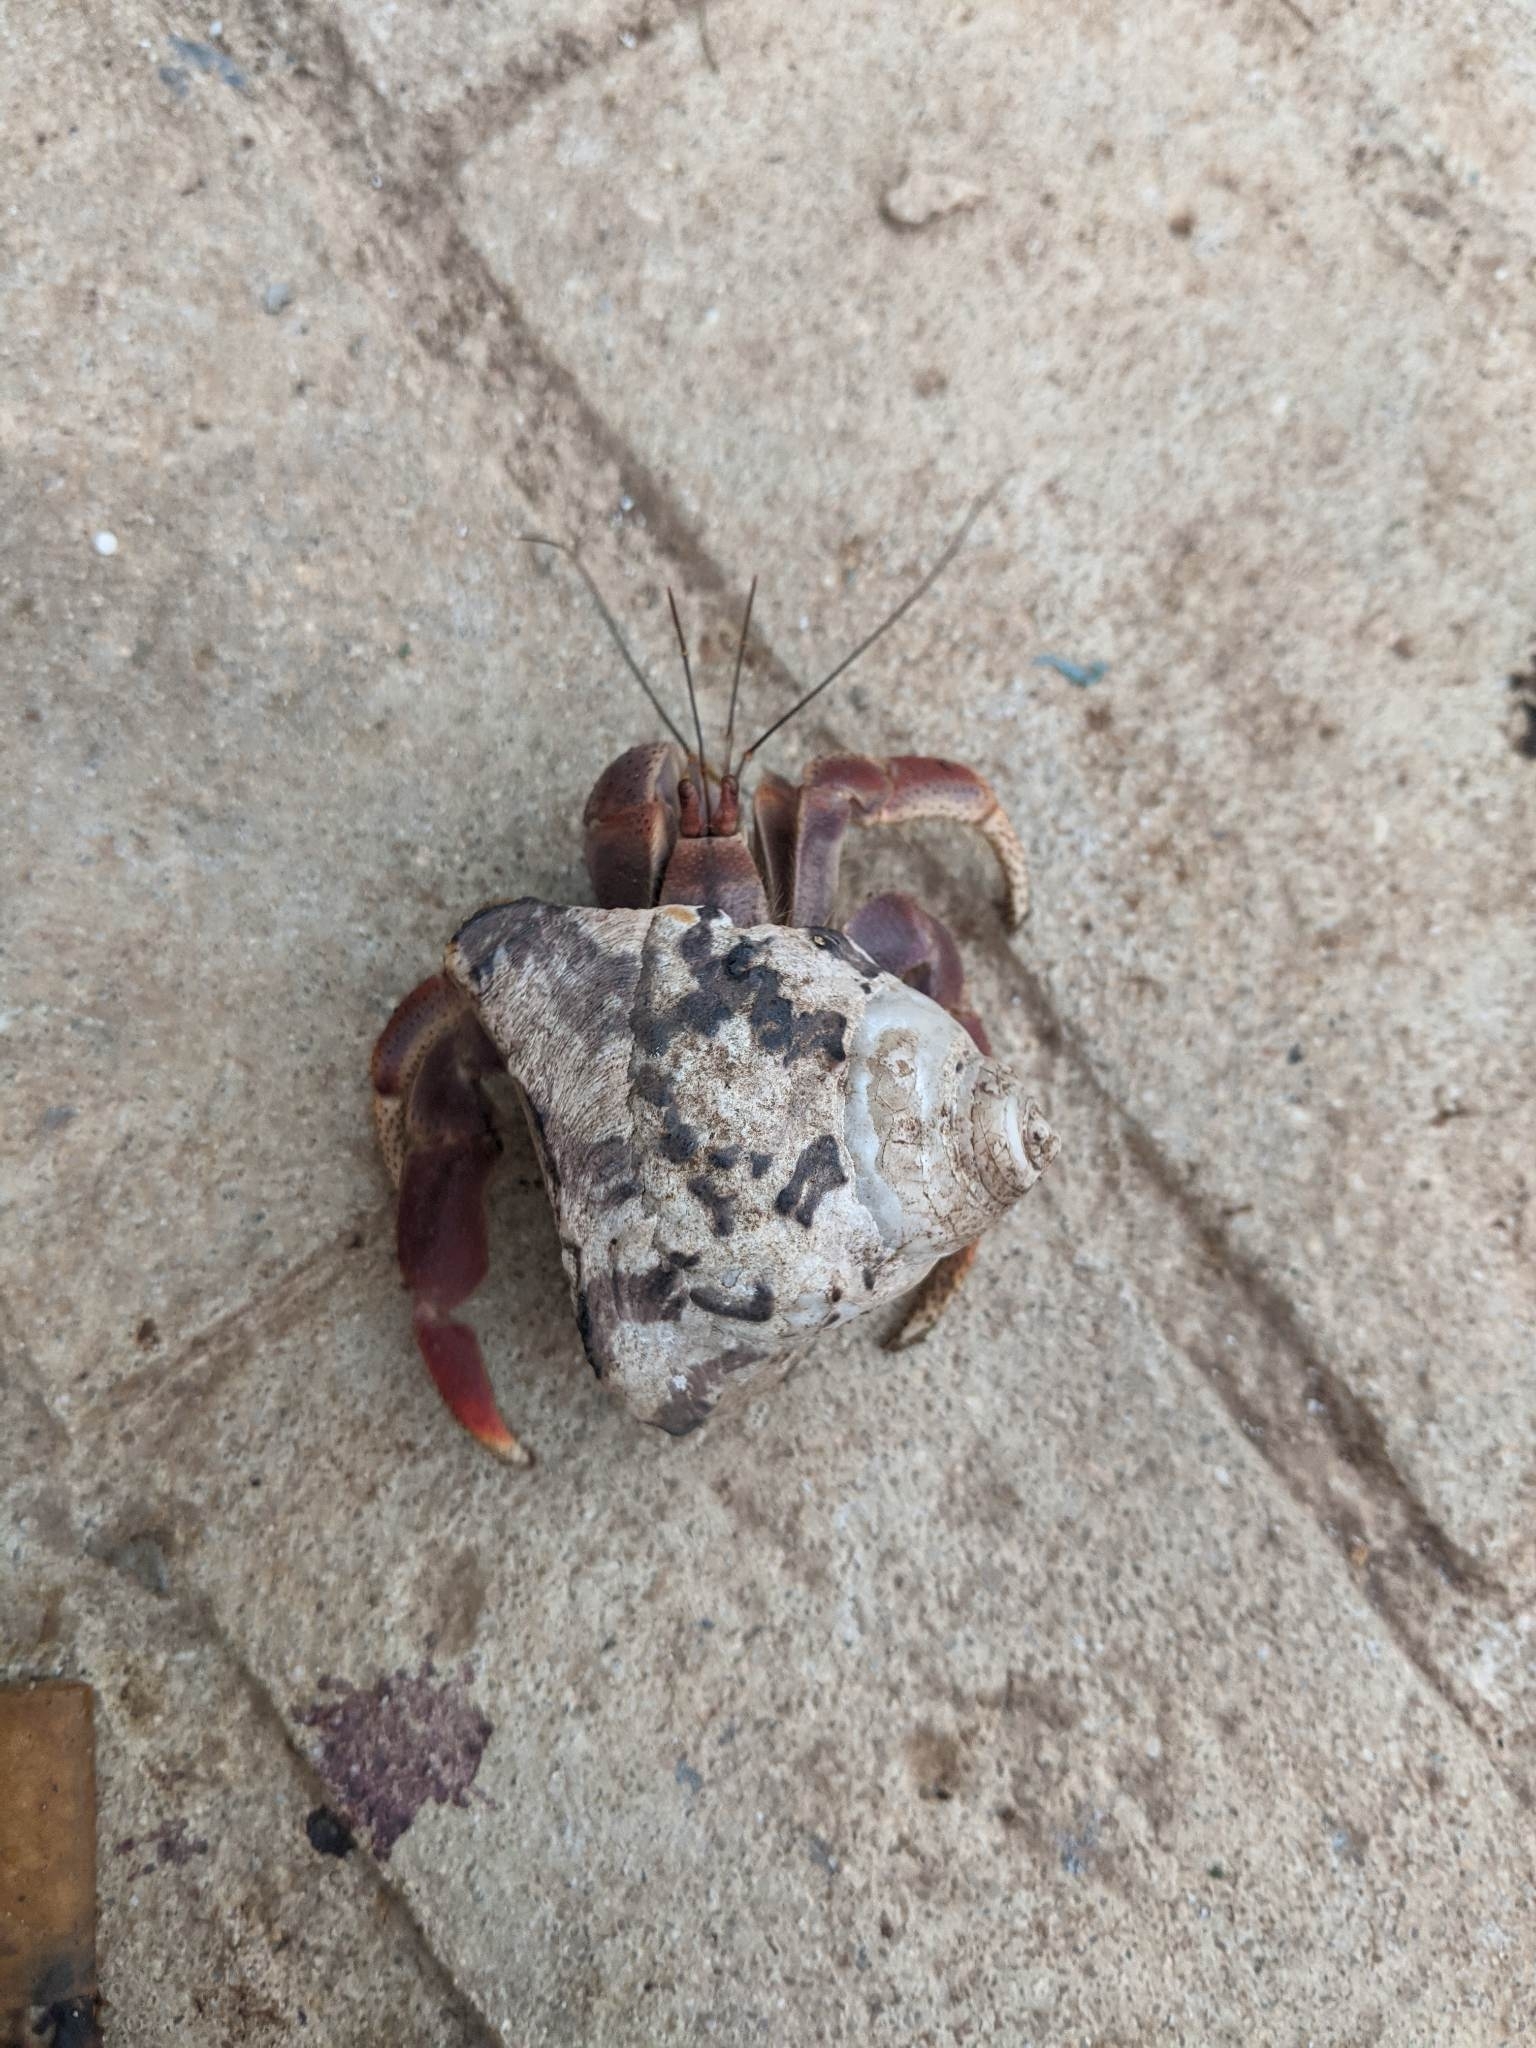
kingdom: Animalia
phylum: Arthropoda
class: Malacostraca
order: Decapoda
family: Coenobitidae
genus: Coenobita
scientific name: Coenobita clypeatus
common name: Caribbean hermit crab
